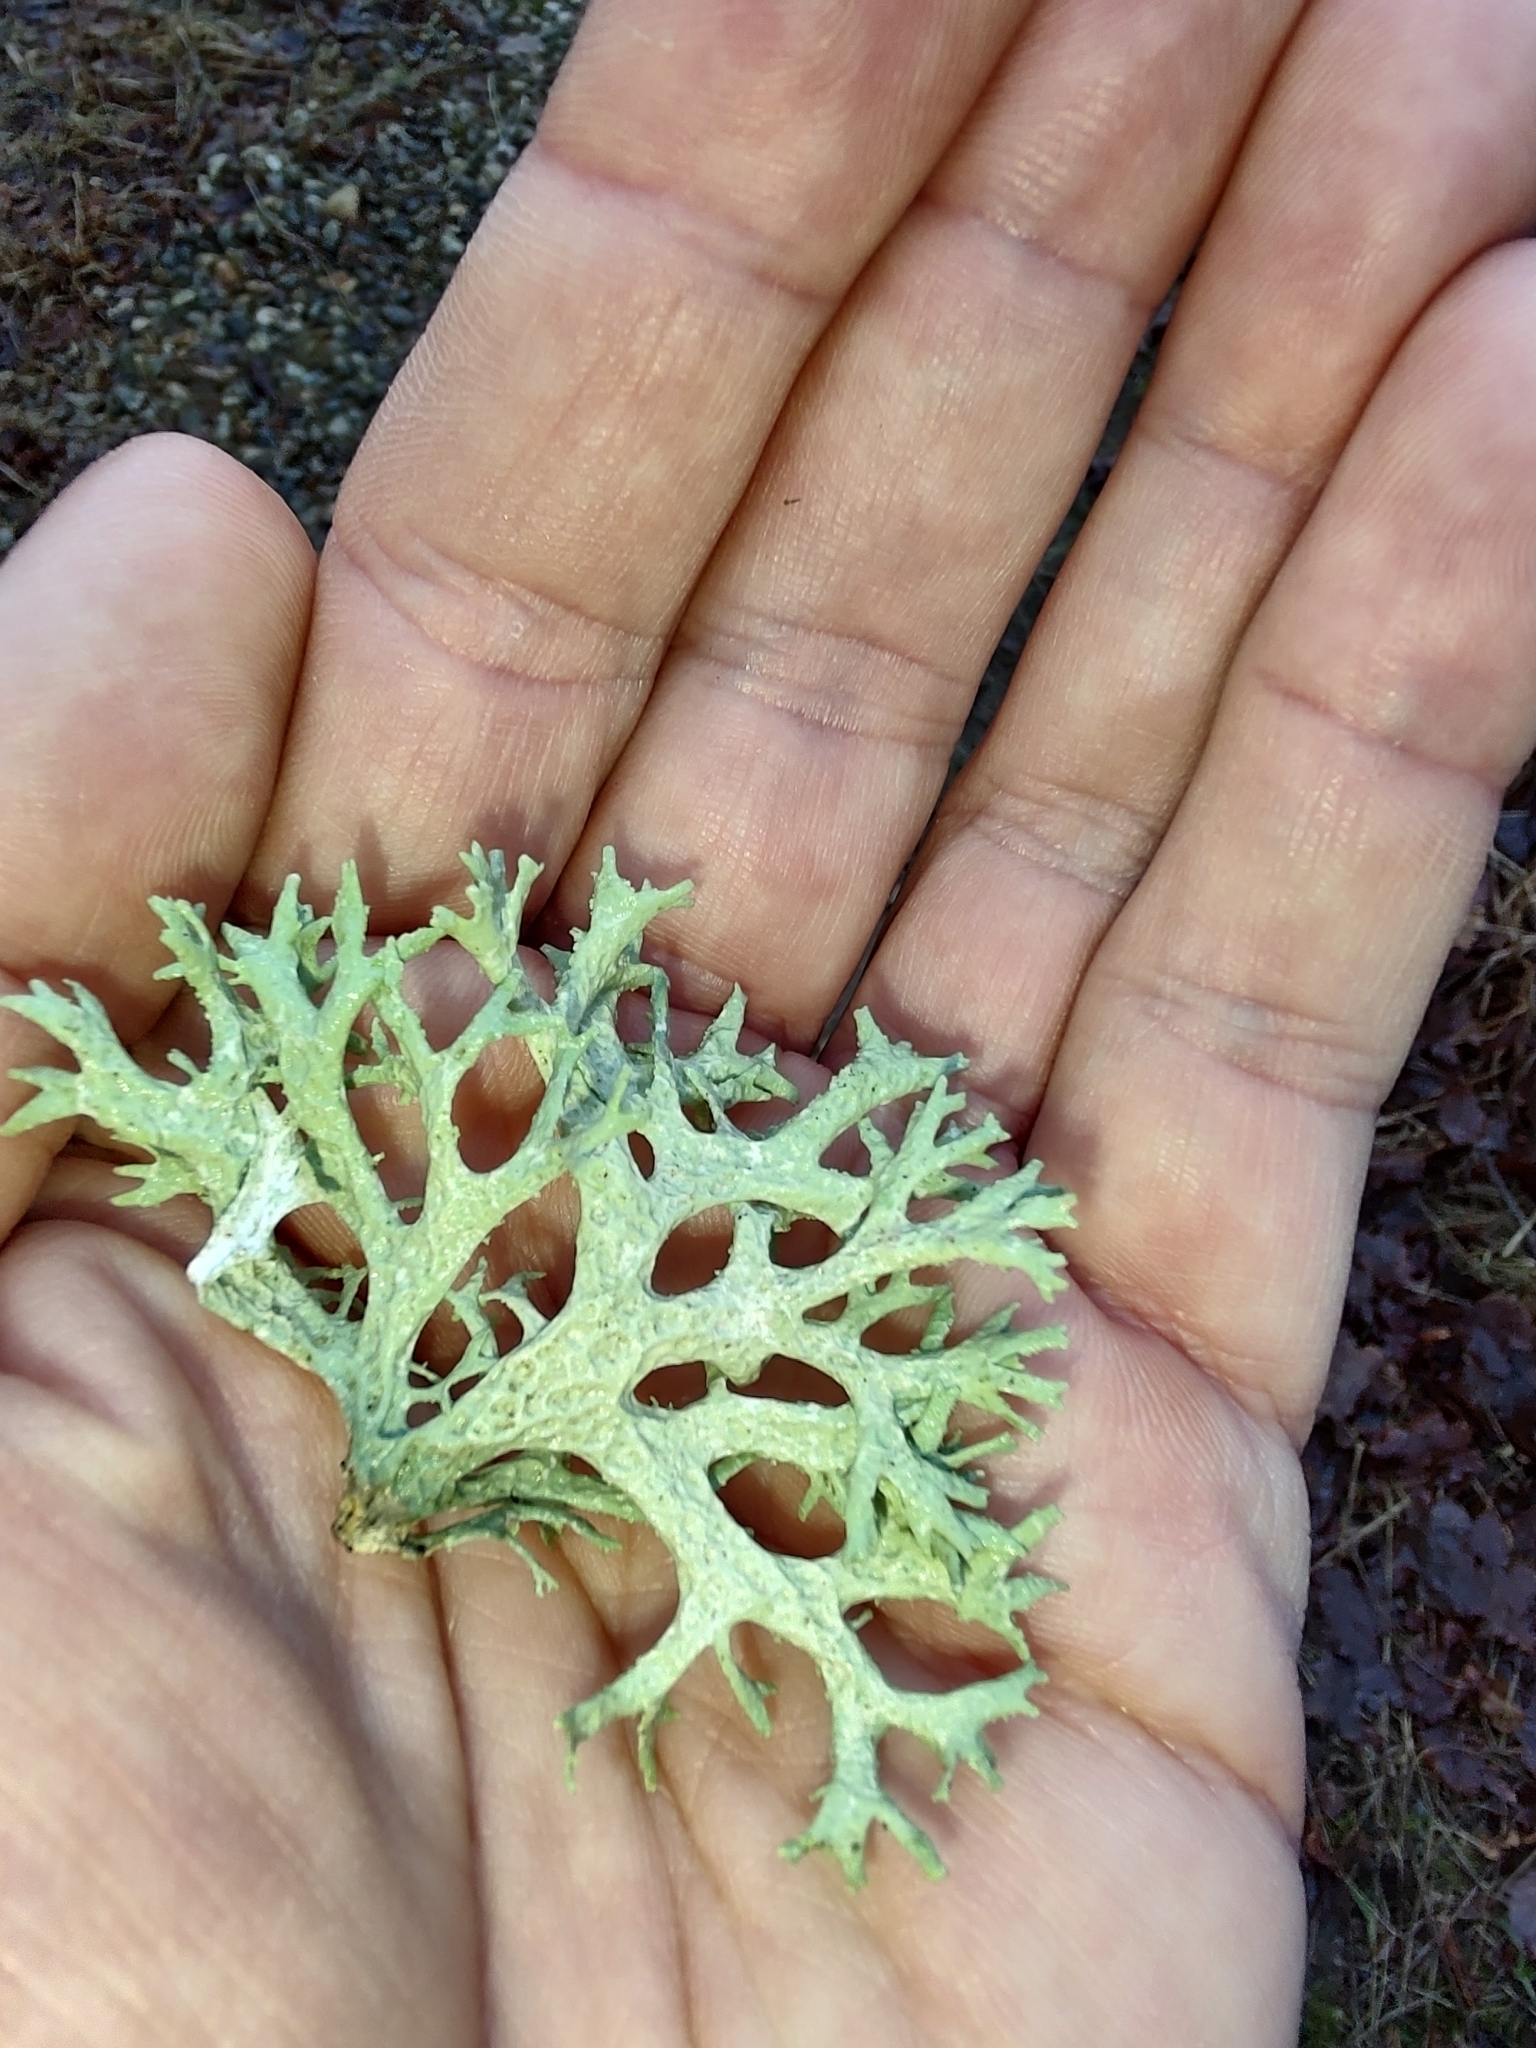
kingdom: Fungi
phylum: Ascomycota
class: Lecanoromycetes
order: Lecanorales
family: Parmeliaceae
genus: Evernia
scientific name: Evernia prunastri
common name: Oak moss
